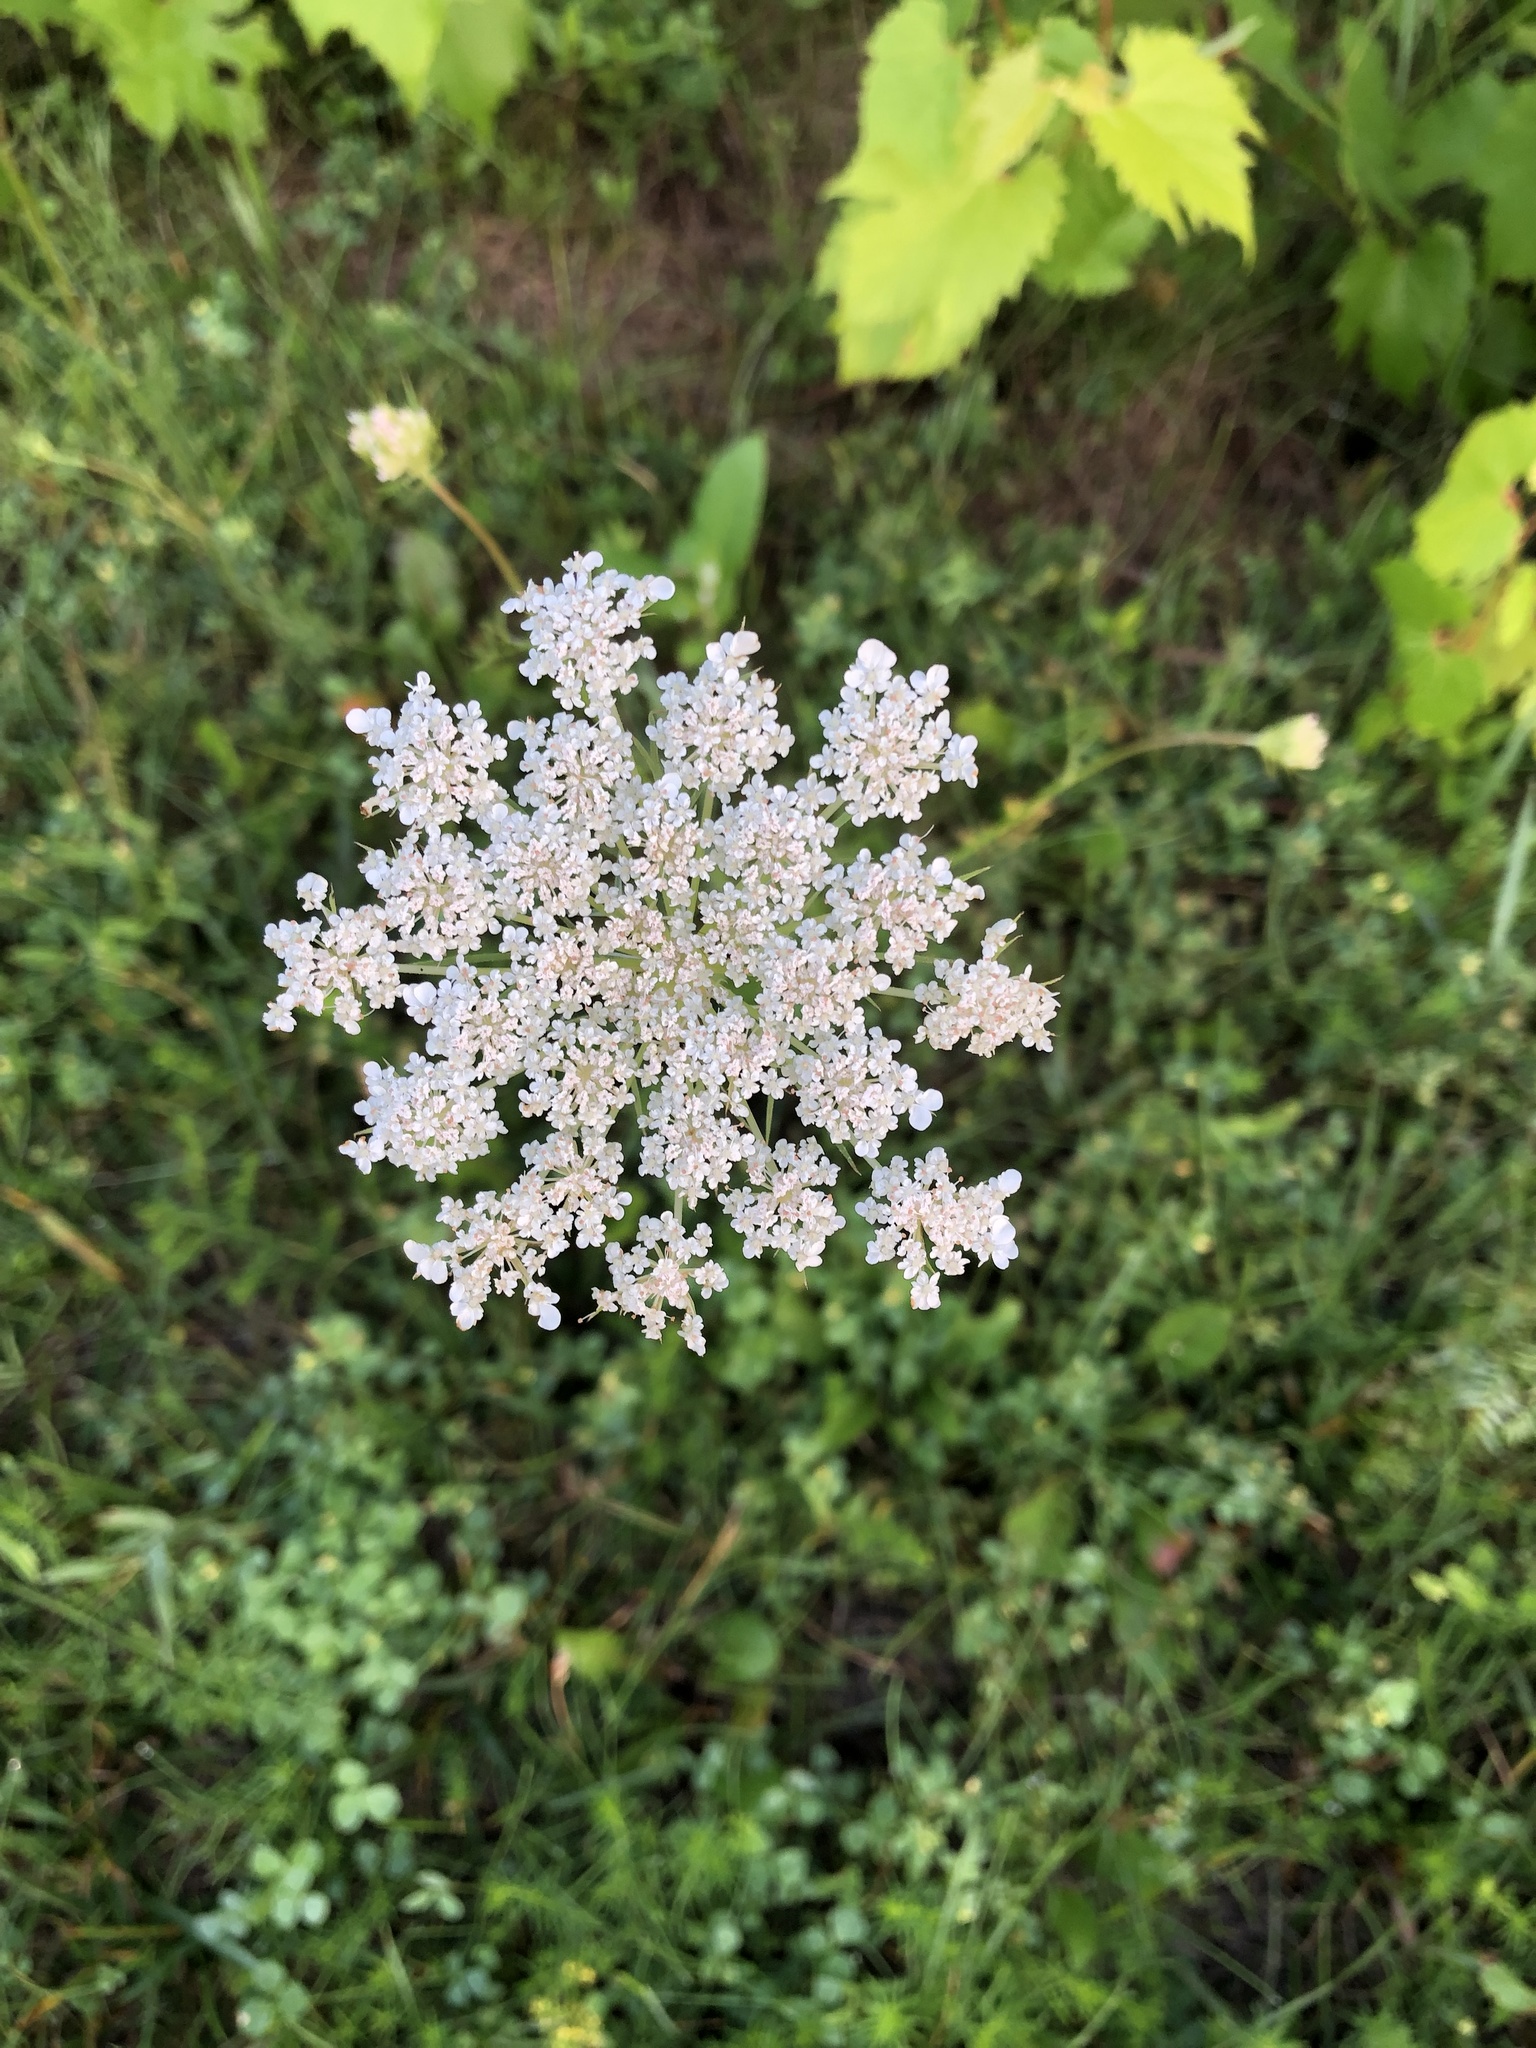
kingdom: Plantae
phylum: Tracheophyta
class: Magnoliopsida
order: Apiales
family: Apiaceae
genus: Daucus
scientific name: Daucus carota
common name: Wild carrot
